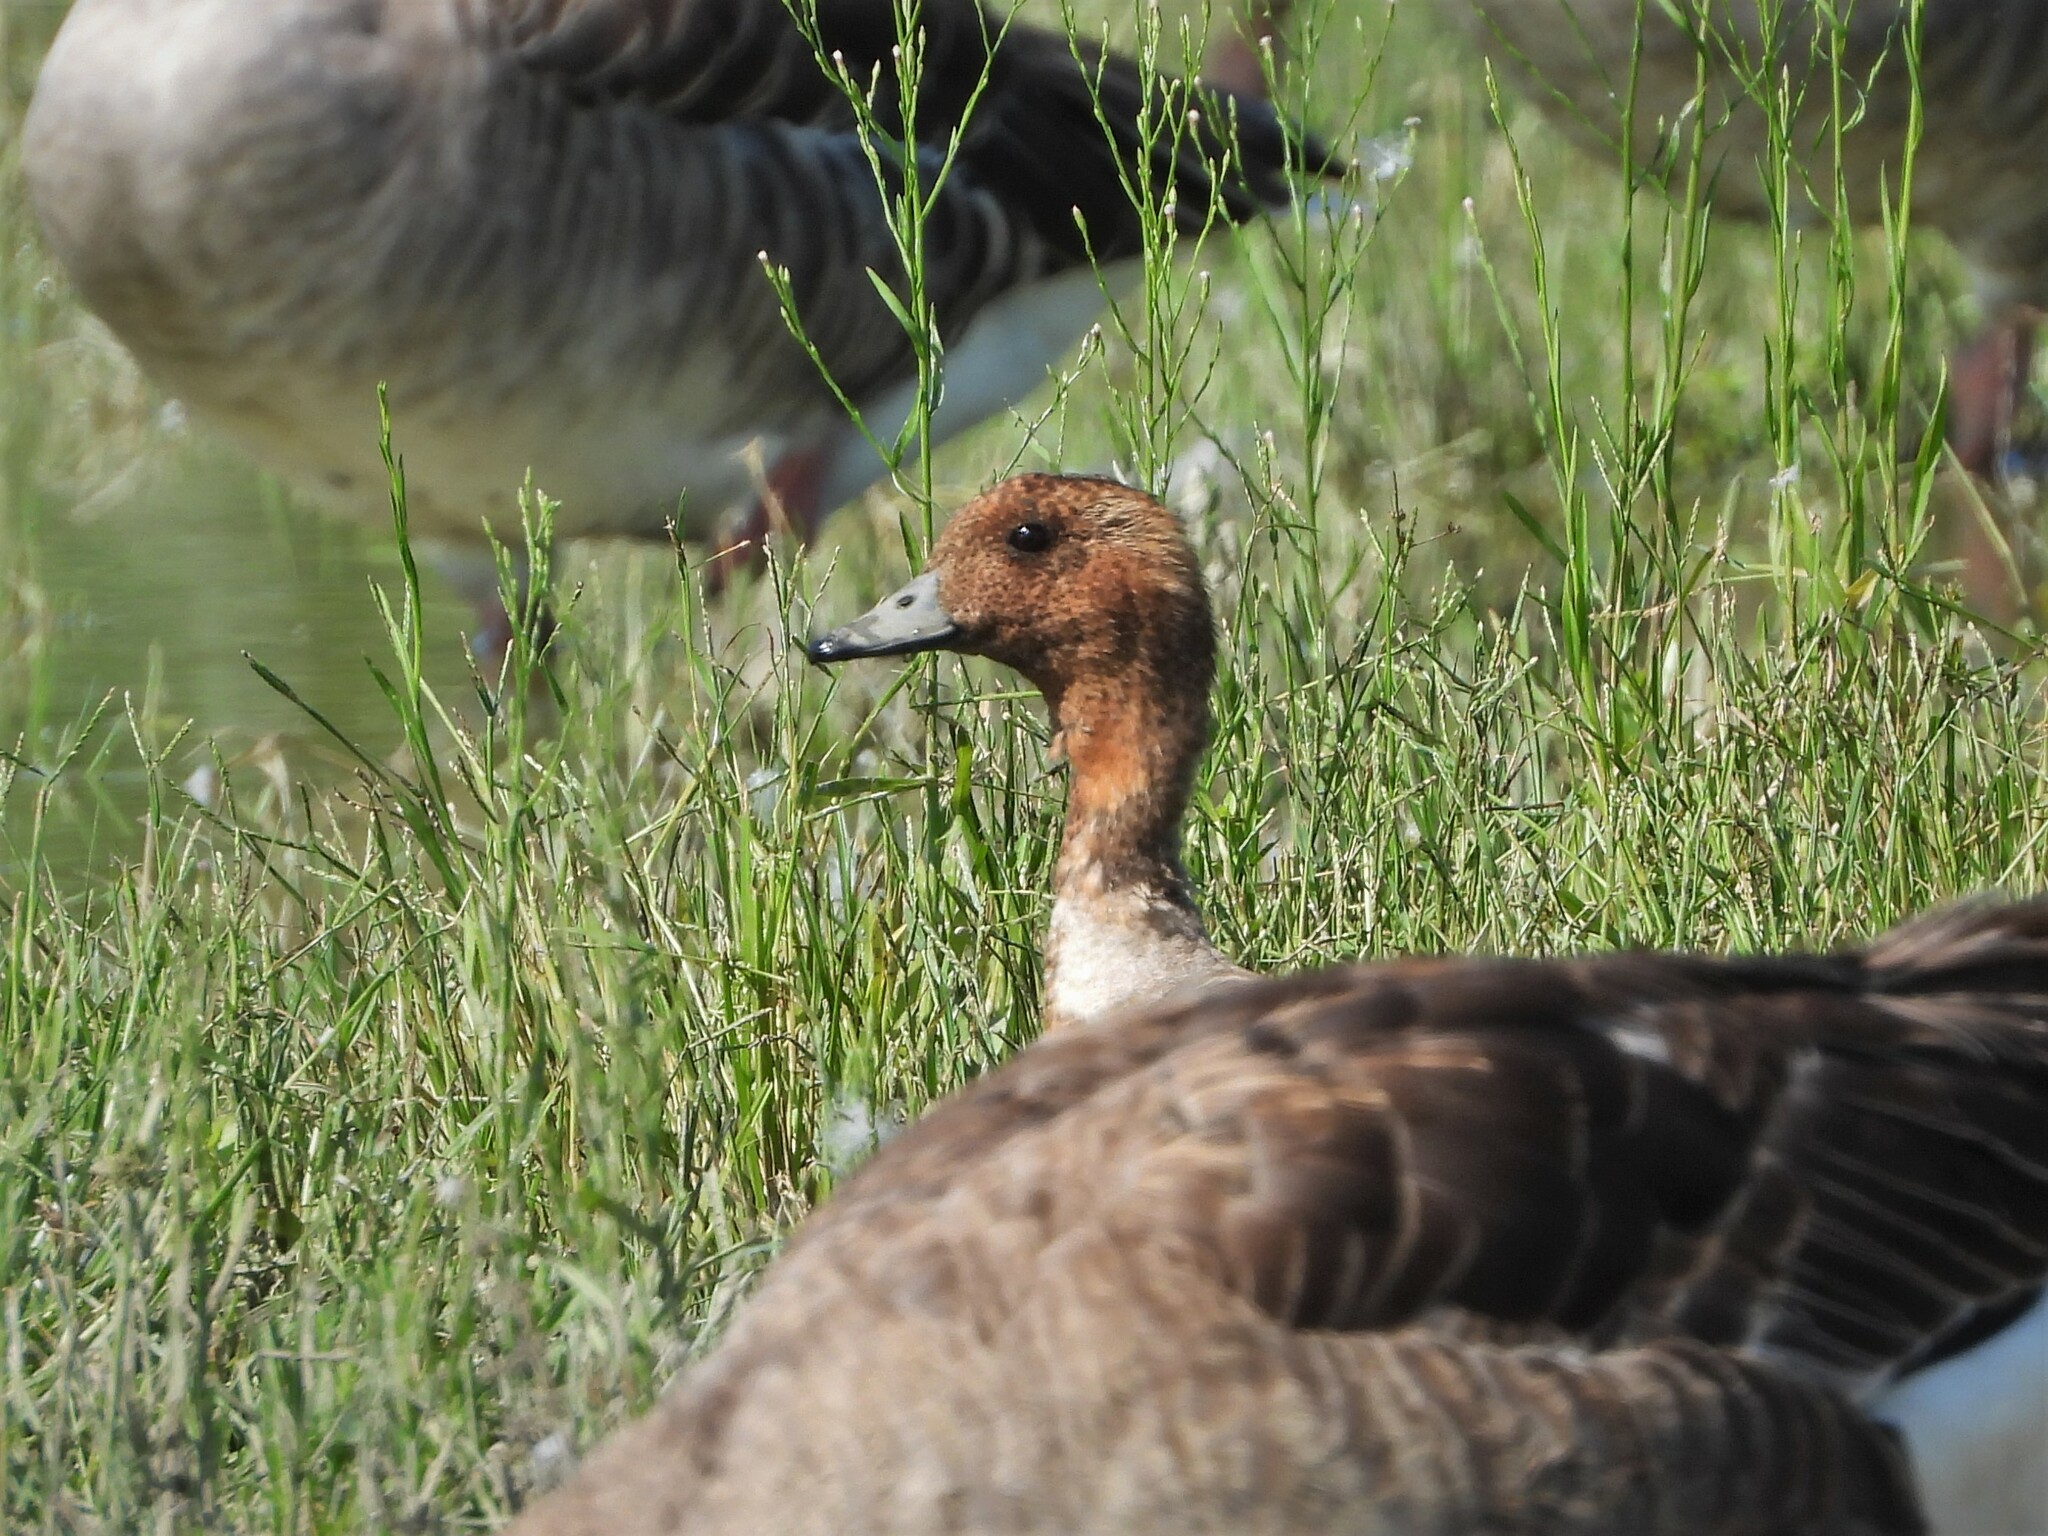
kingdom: Animalia
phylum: Chordata
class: Aves
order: Anseriformes
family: Anatidae
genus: Mareca
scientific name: Mareca penelope
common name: Eurasian wigeon
